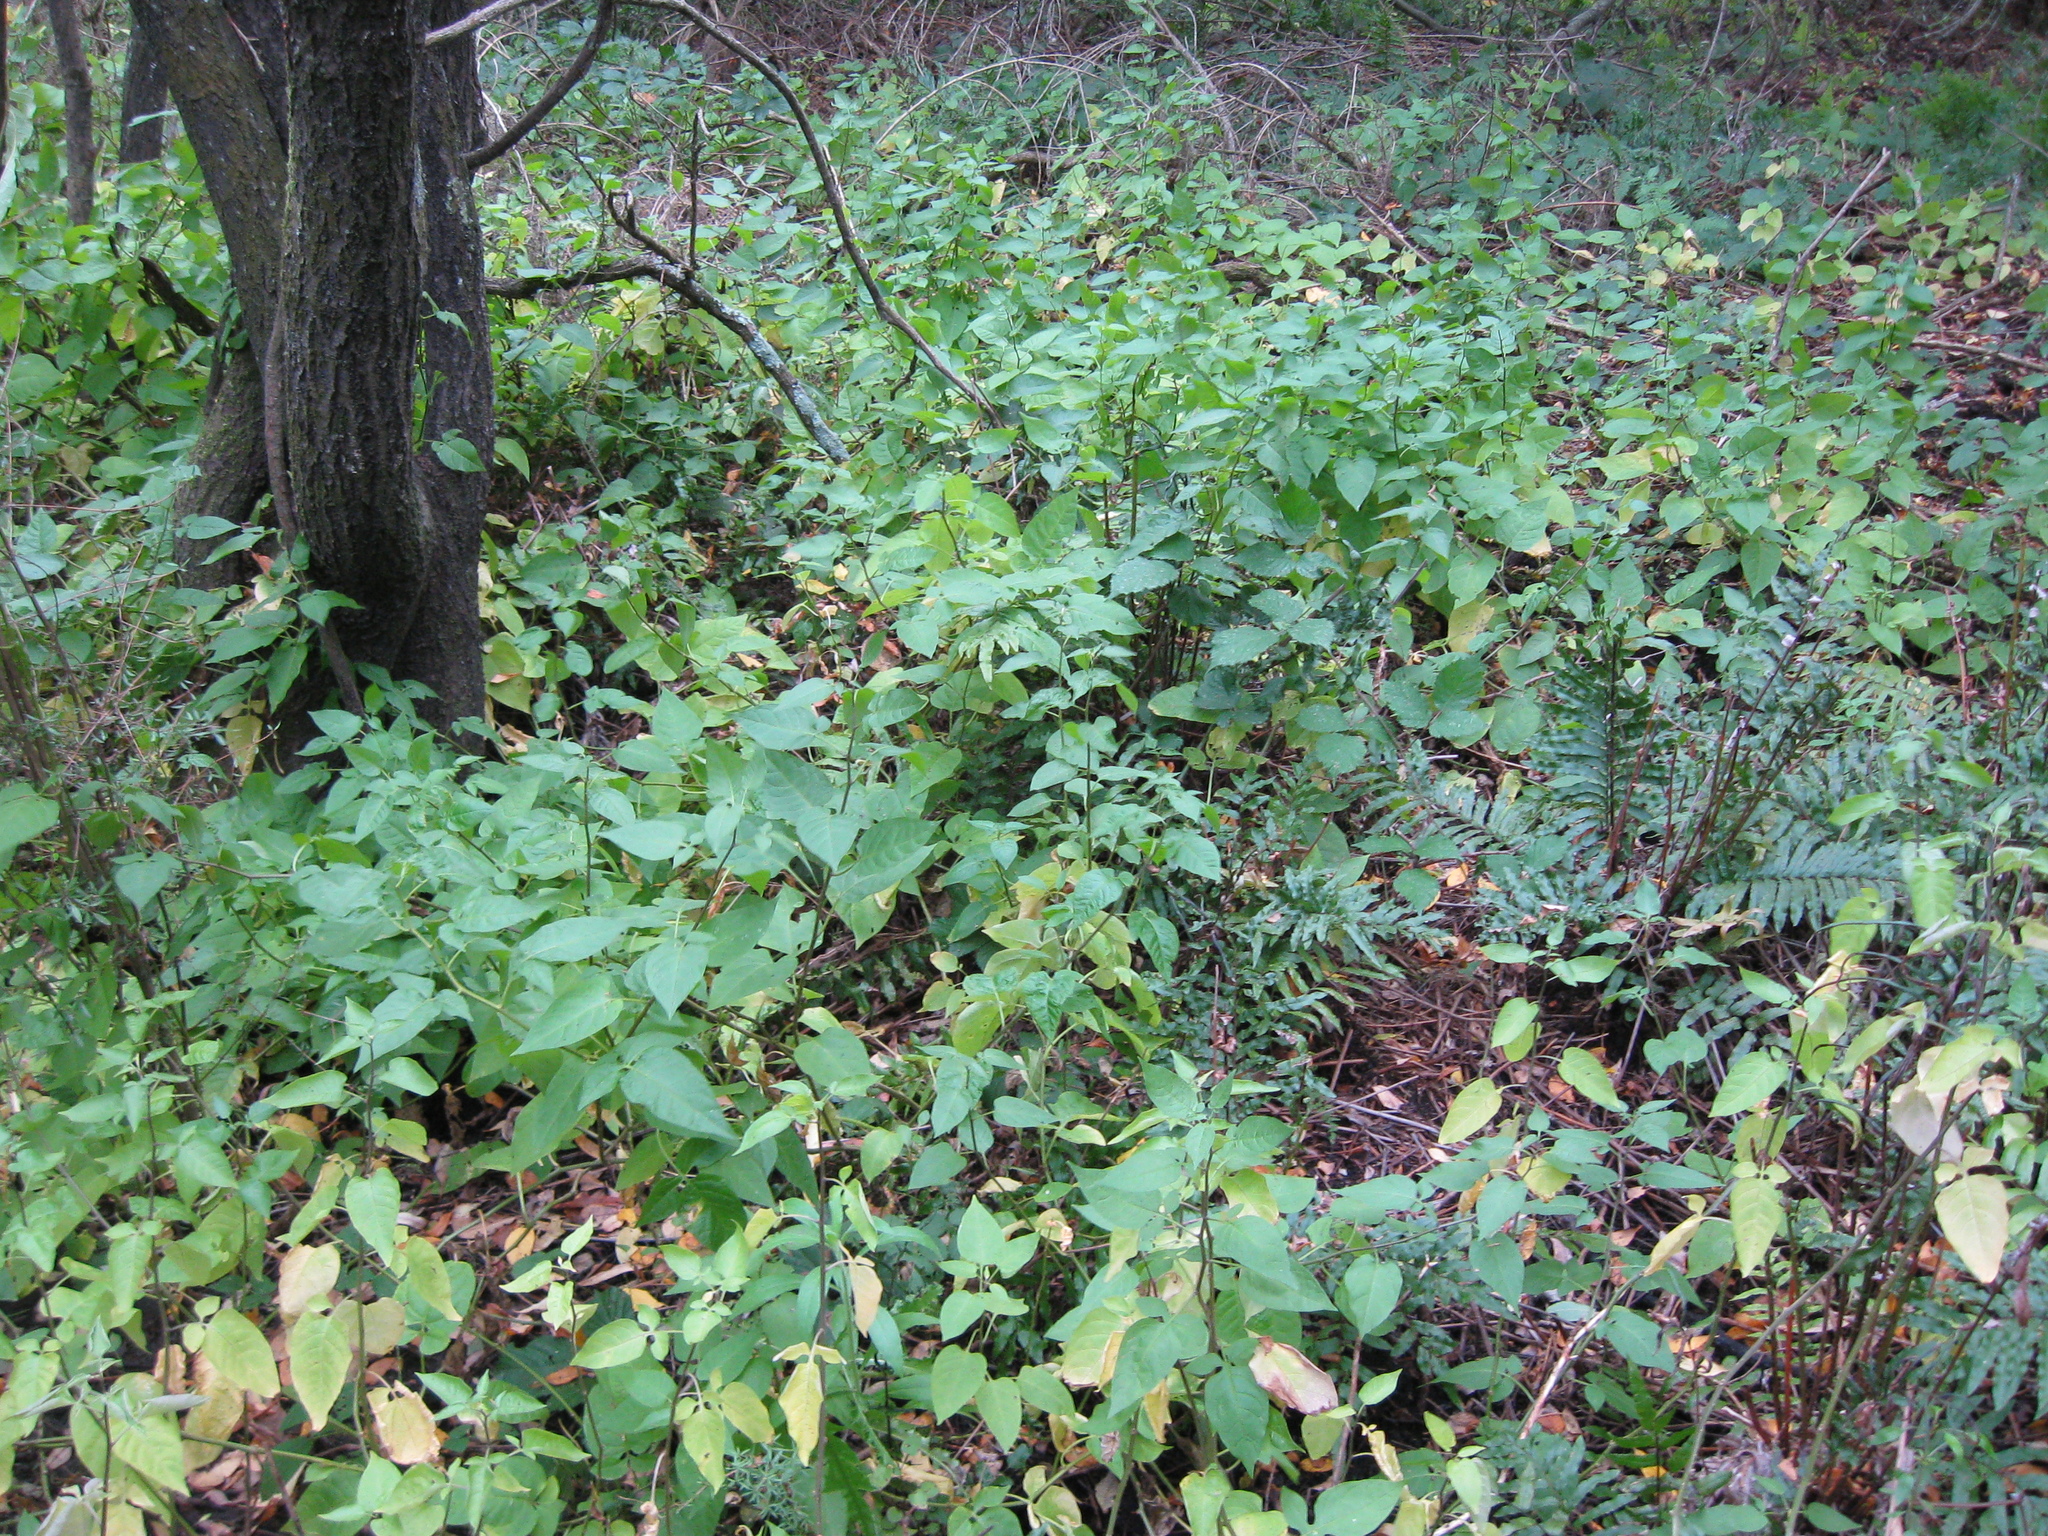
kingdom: Plantae
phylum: Tracheophyta
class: Magnoliopsida
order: Solanales
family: Solanaceae
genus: Solanum
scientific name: Solanum dulcamara
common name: Climbing nightshade
